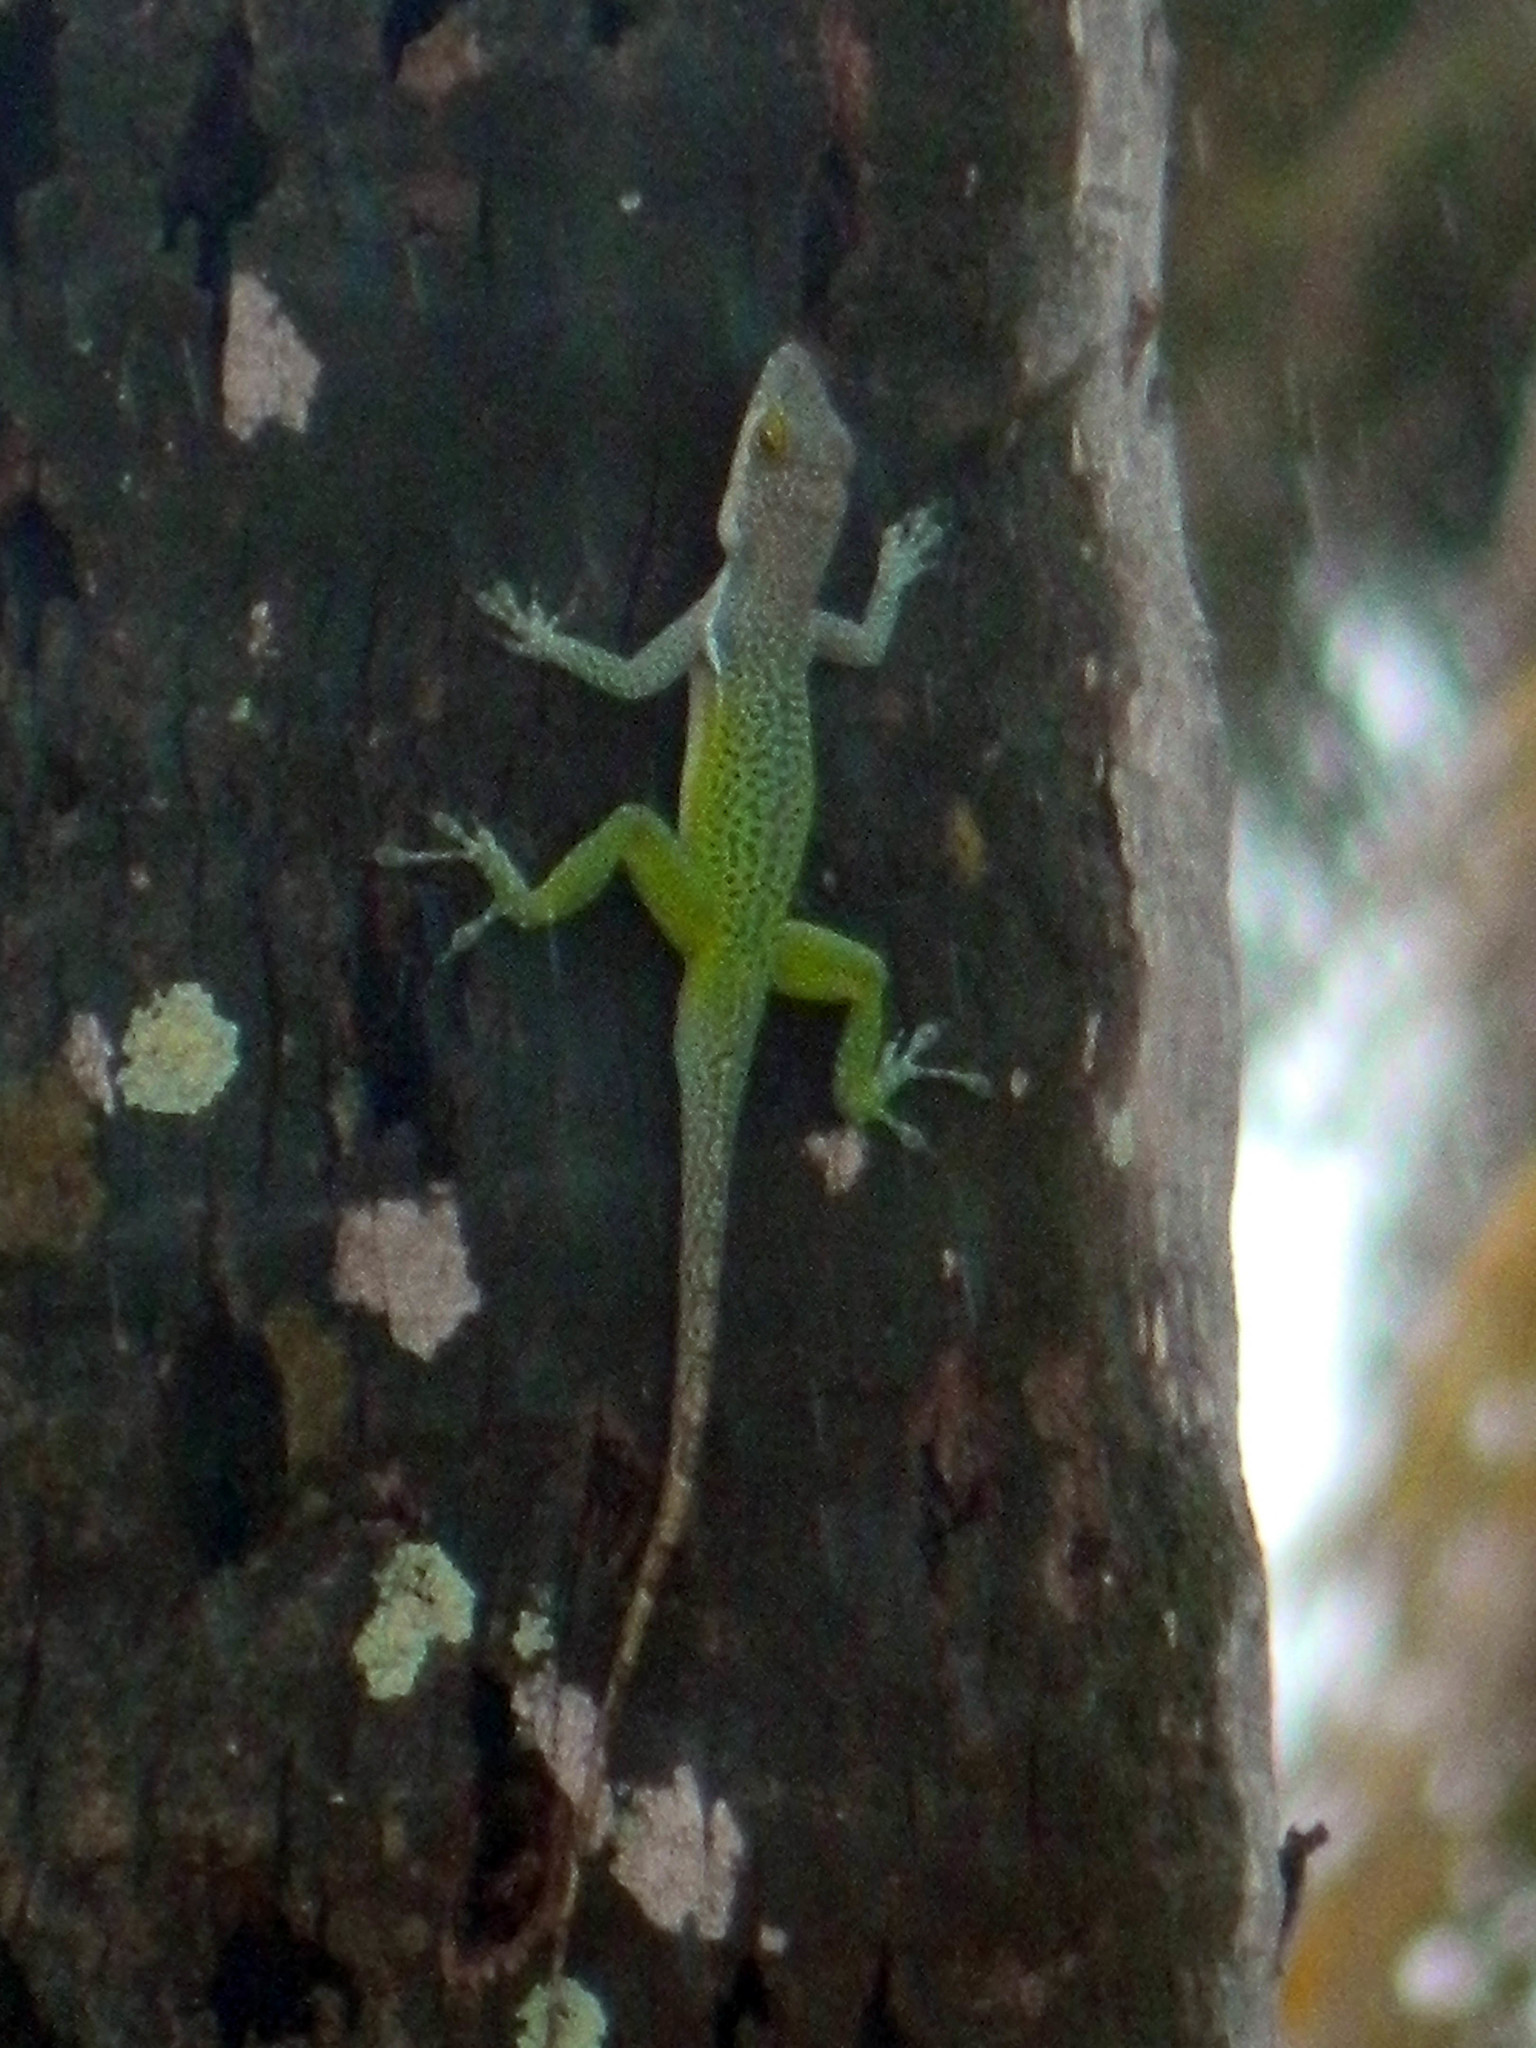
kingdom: Animalia
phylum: Chordata
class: Squamata
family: Dactyloidae
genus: Anolis
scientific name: Anolis leachii
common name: Barbuda bank tree anole
